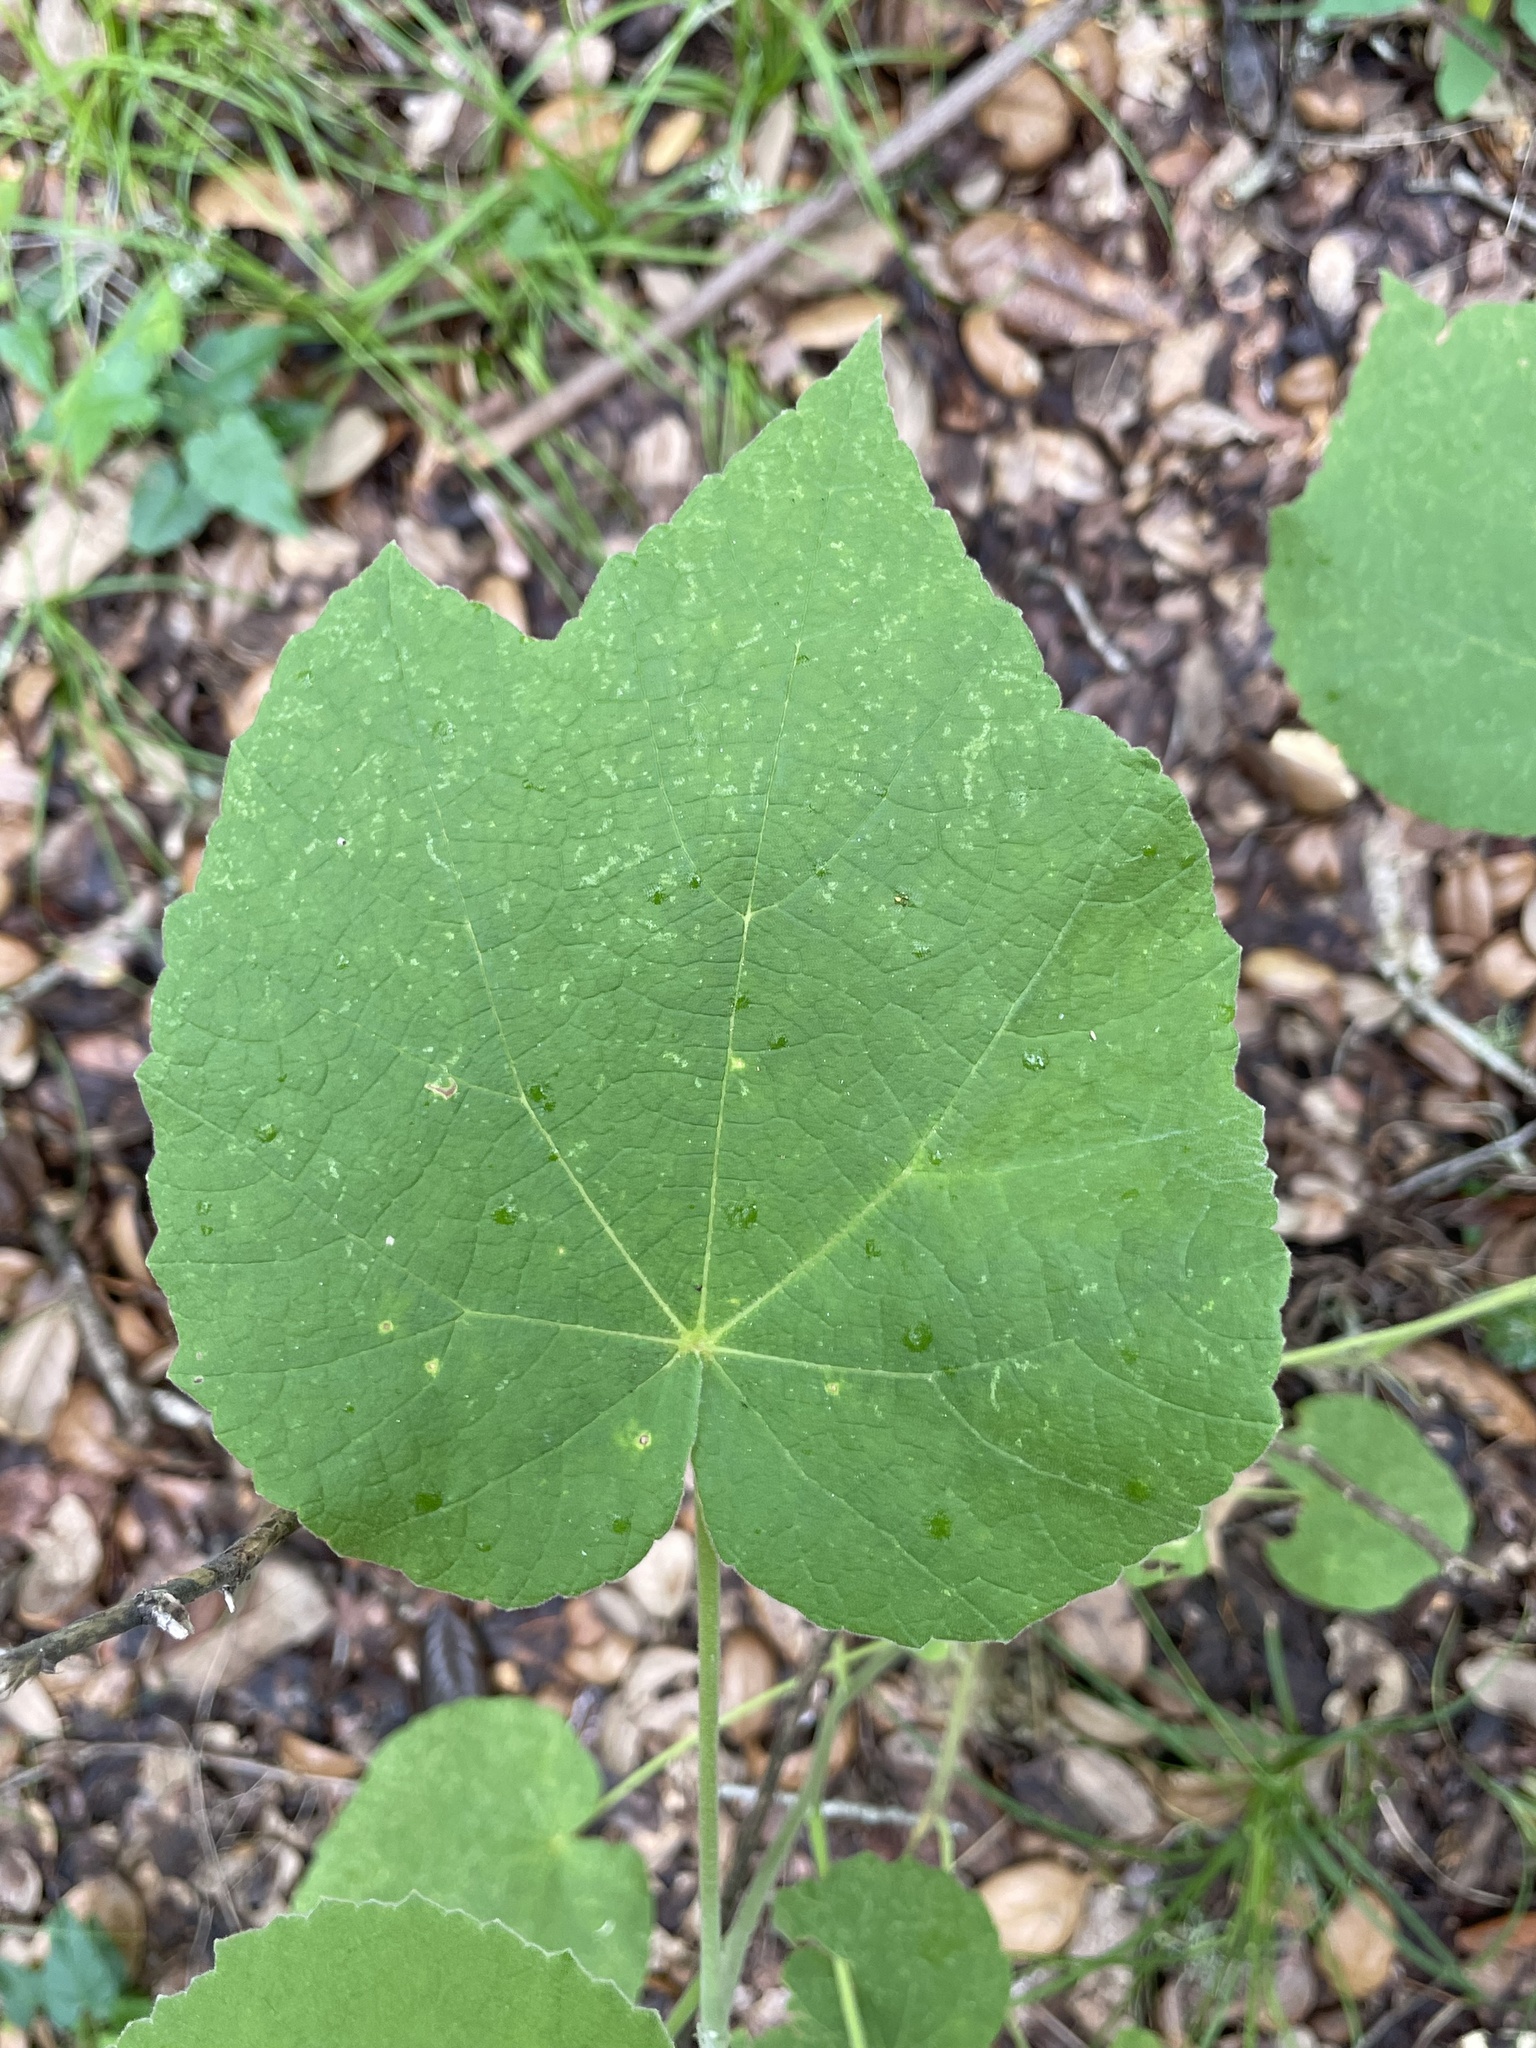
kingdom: Plantae
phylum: Tracheophyta
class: Magnoliopsida
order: Malvales
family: Malvaceae
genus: Allowissadula
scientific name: Allowissadula holosericea
